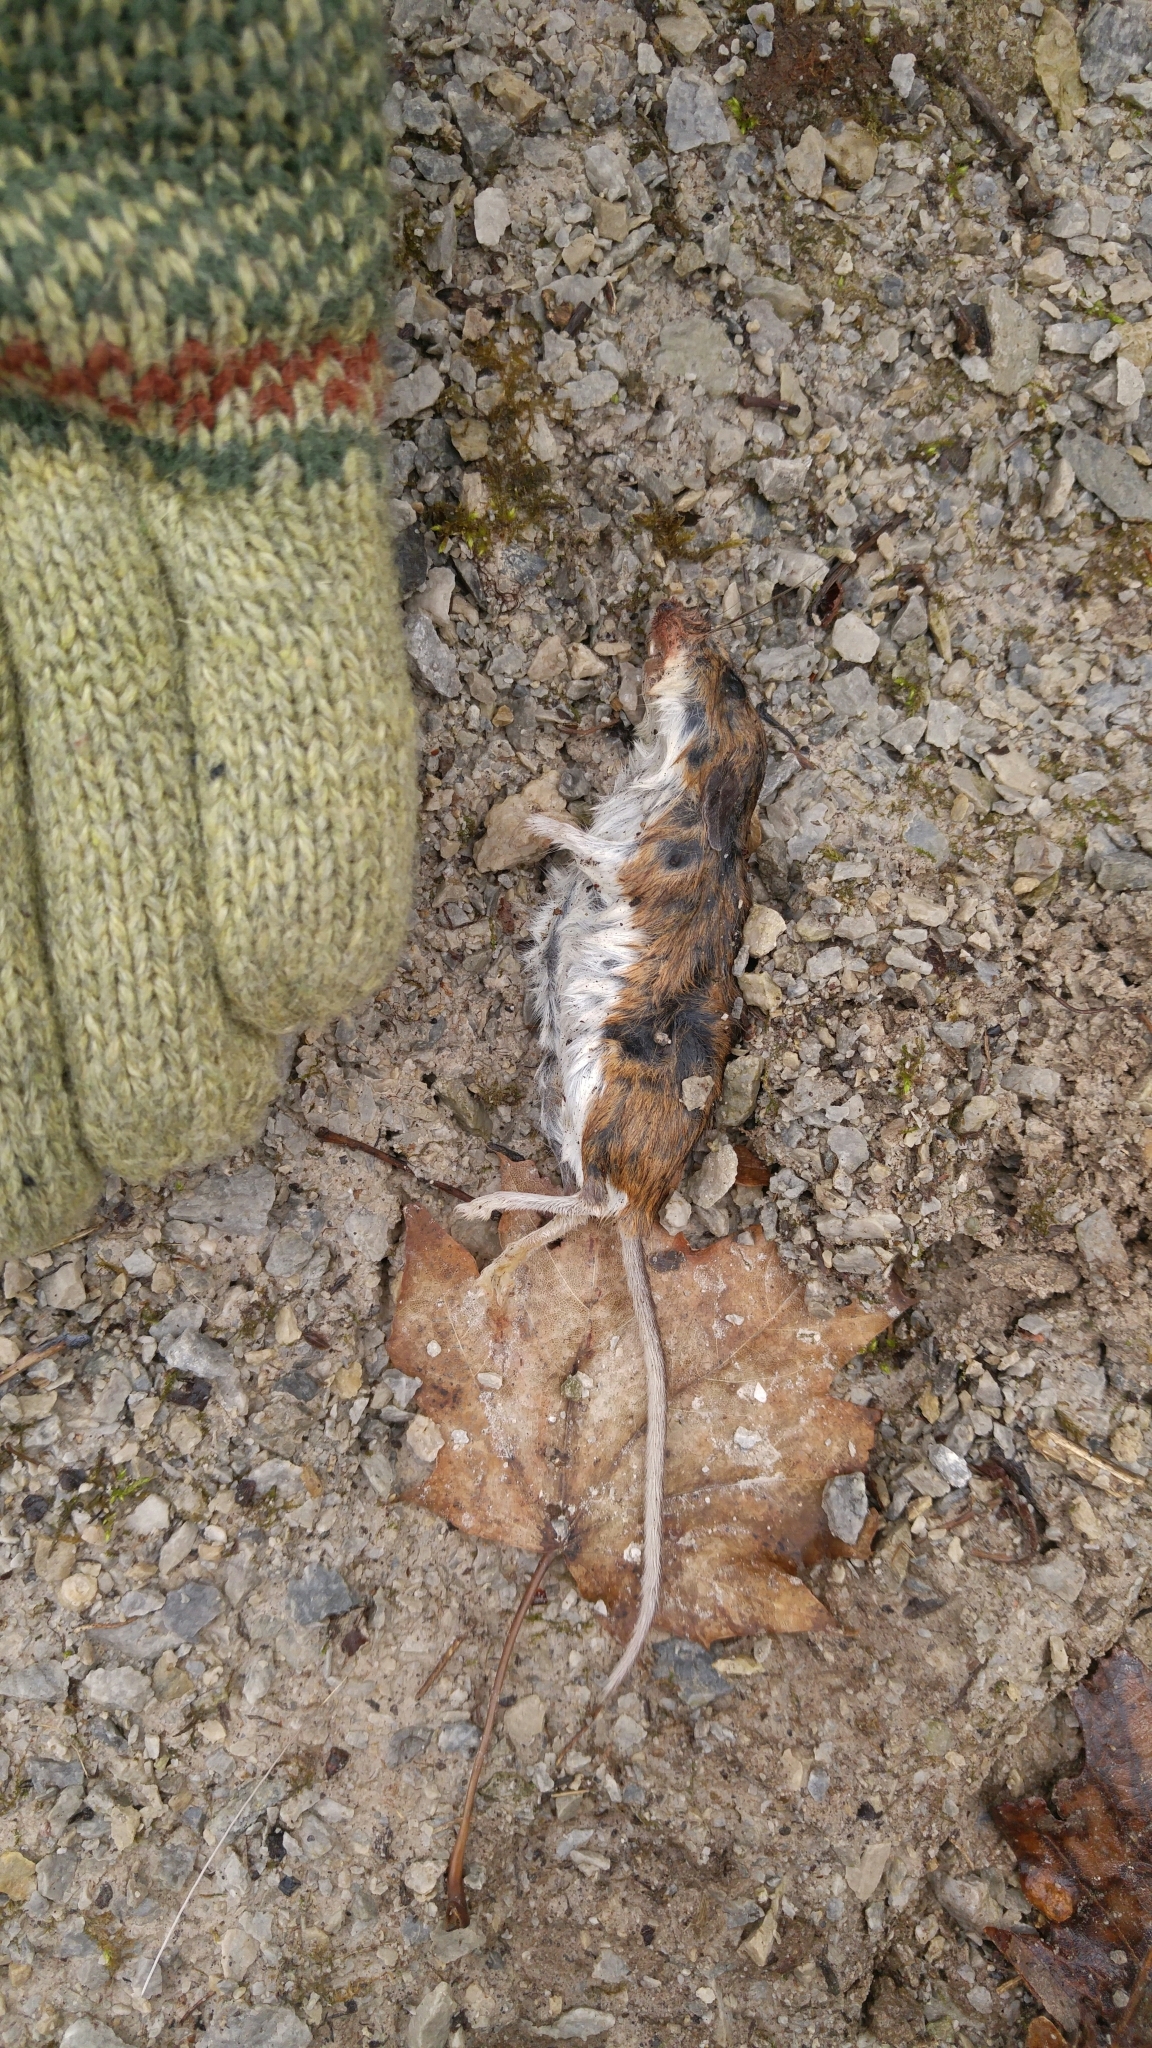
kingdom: Animalia
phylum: Chordata
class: Mammalia
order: Rodentia
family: Cricetidae
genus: Peromyscus
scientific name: Peromyscus
